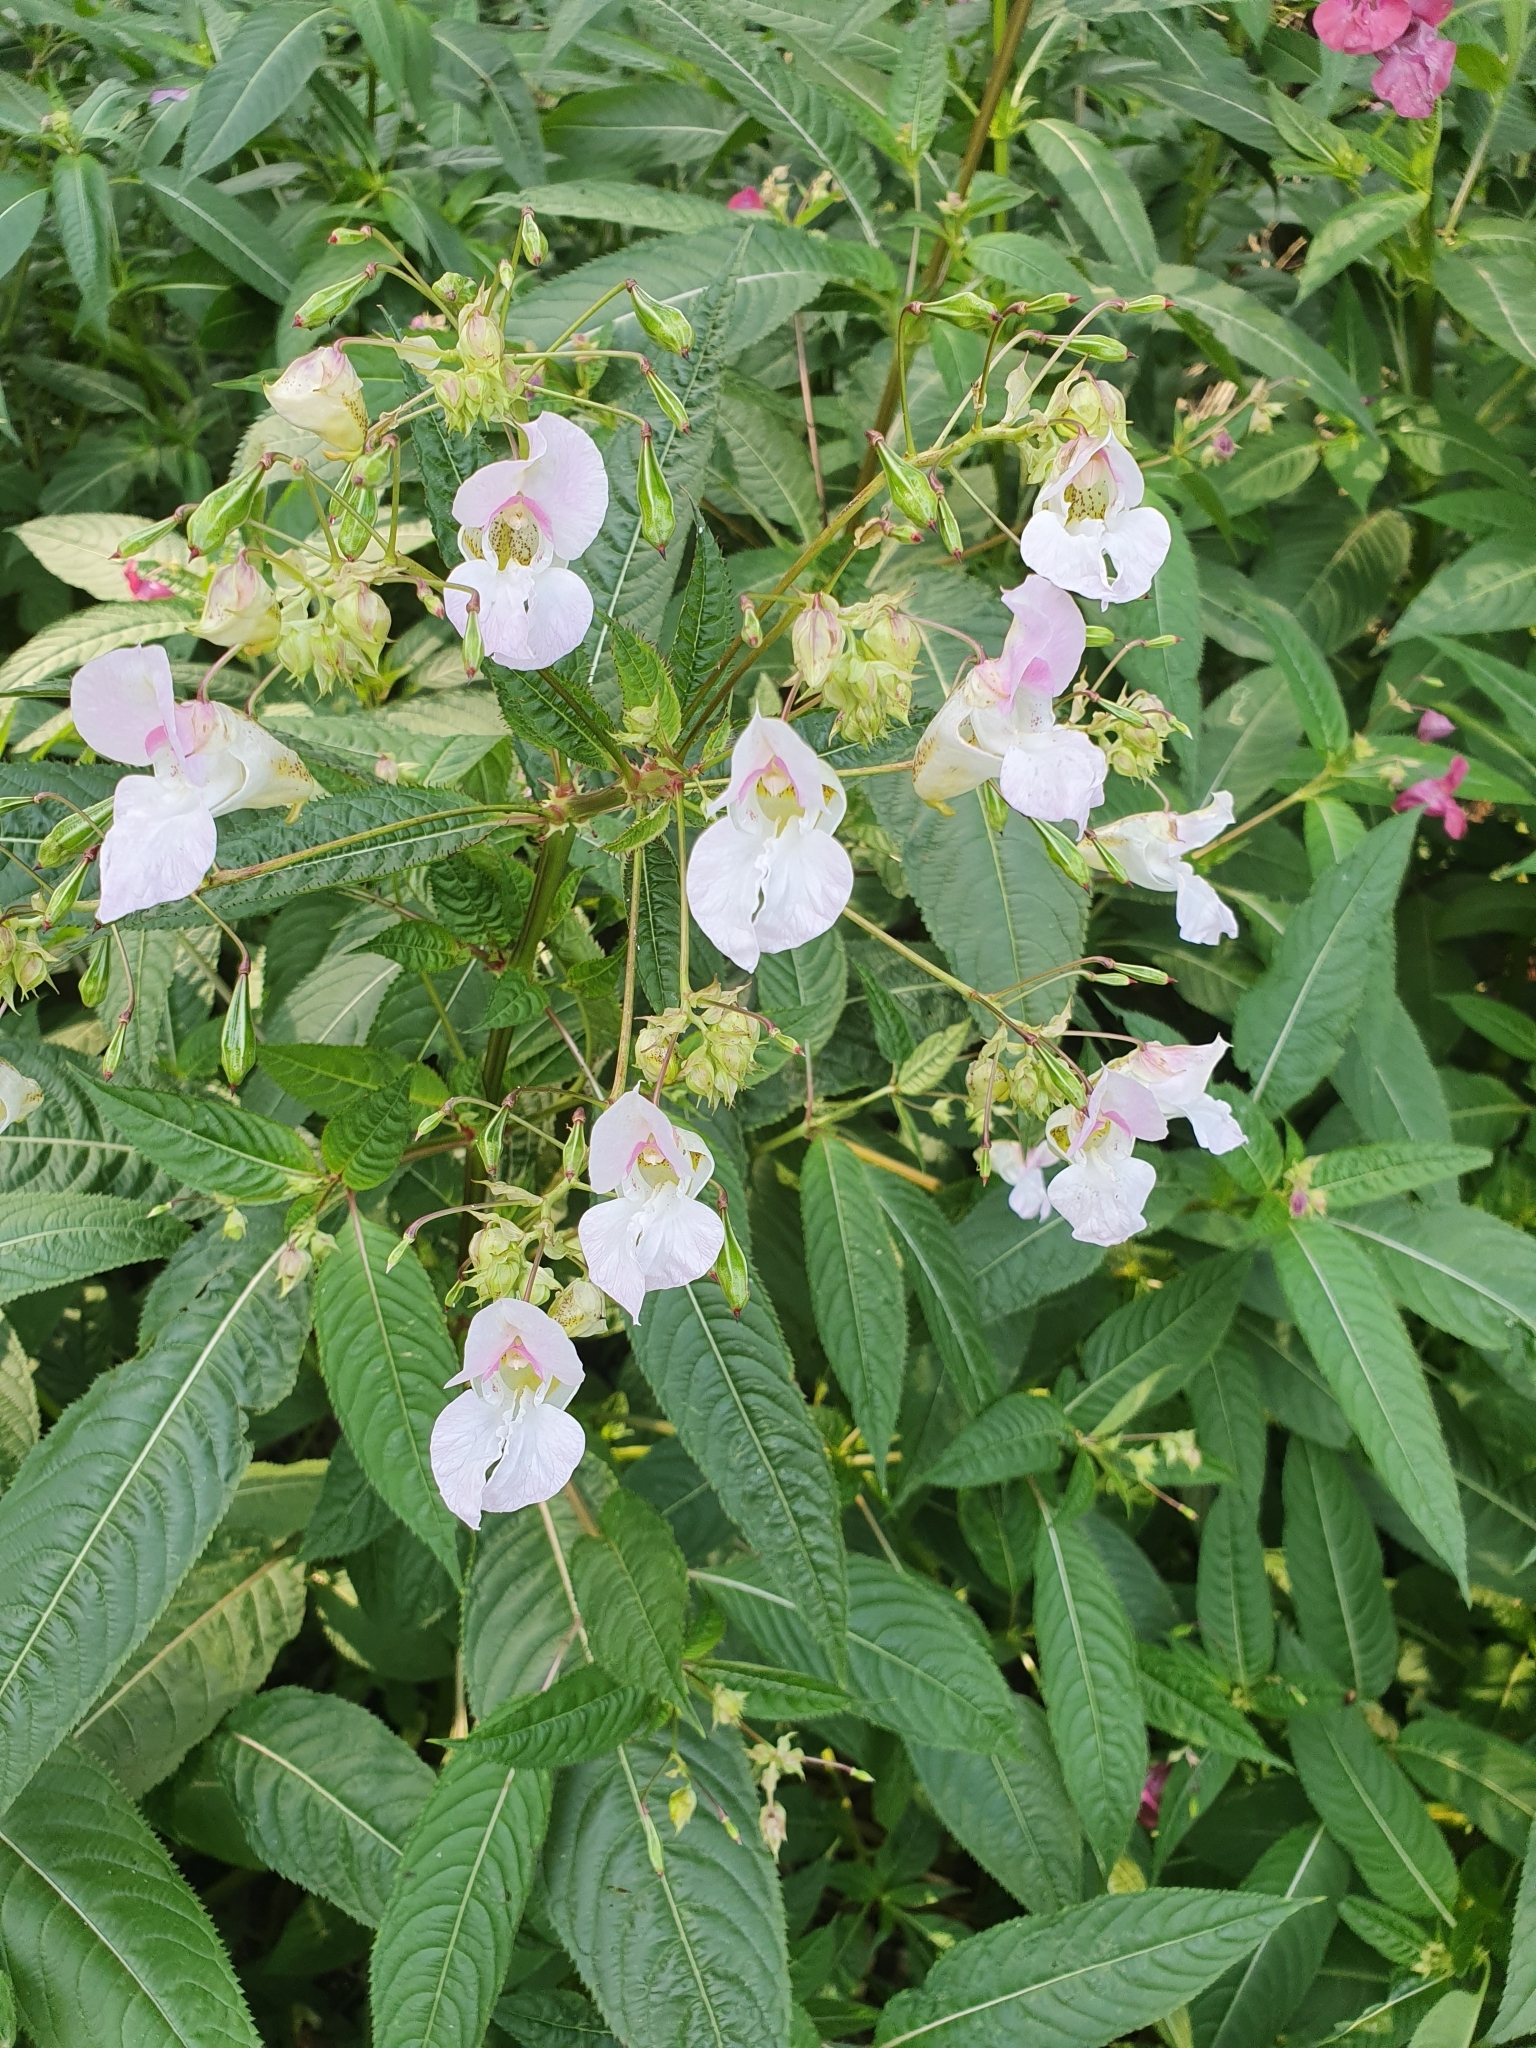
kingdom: Plantae
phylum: Tracheophyta
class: Magnoliopsida
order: Ericales
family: Balsaminaceae
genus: Impatiens
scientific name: Impatiens glandulifera
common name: Himalayan balsam
